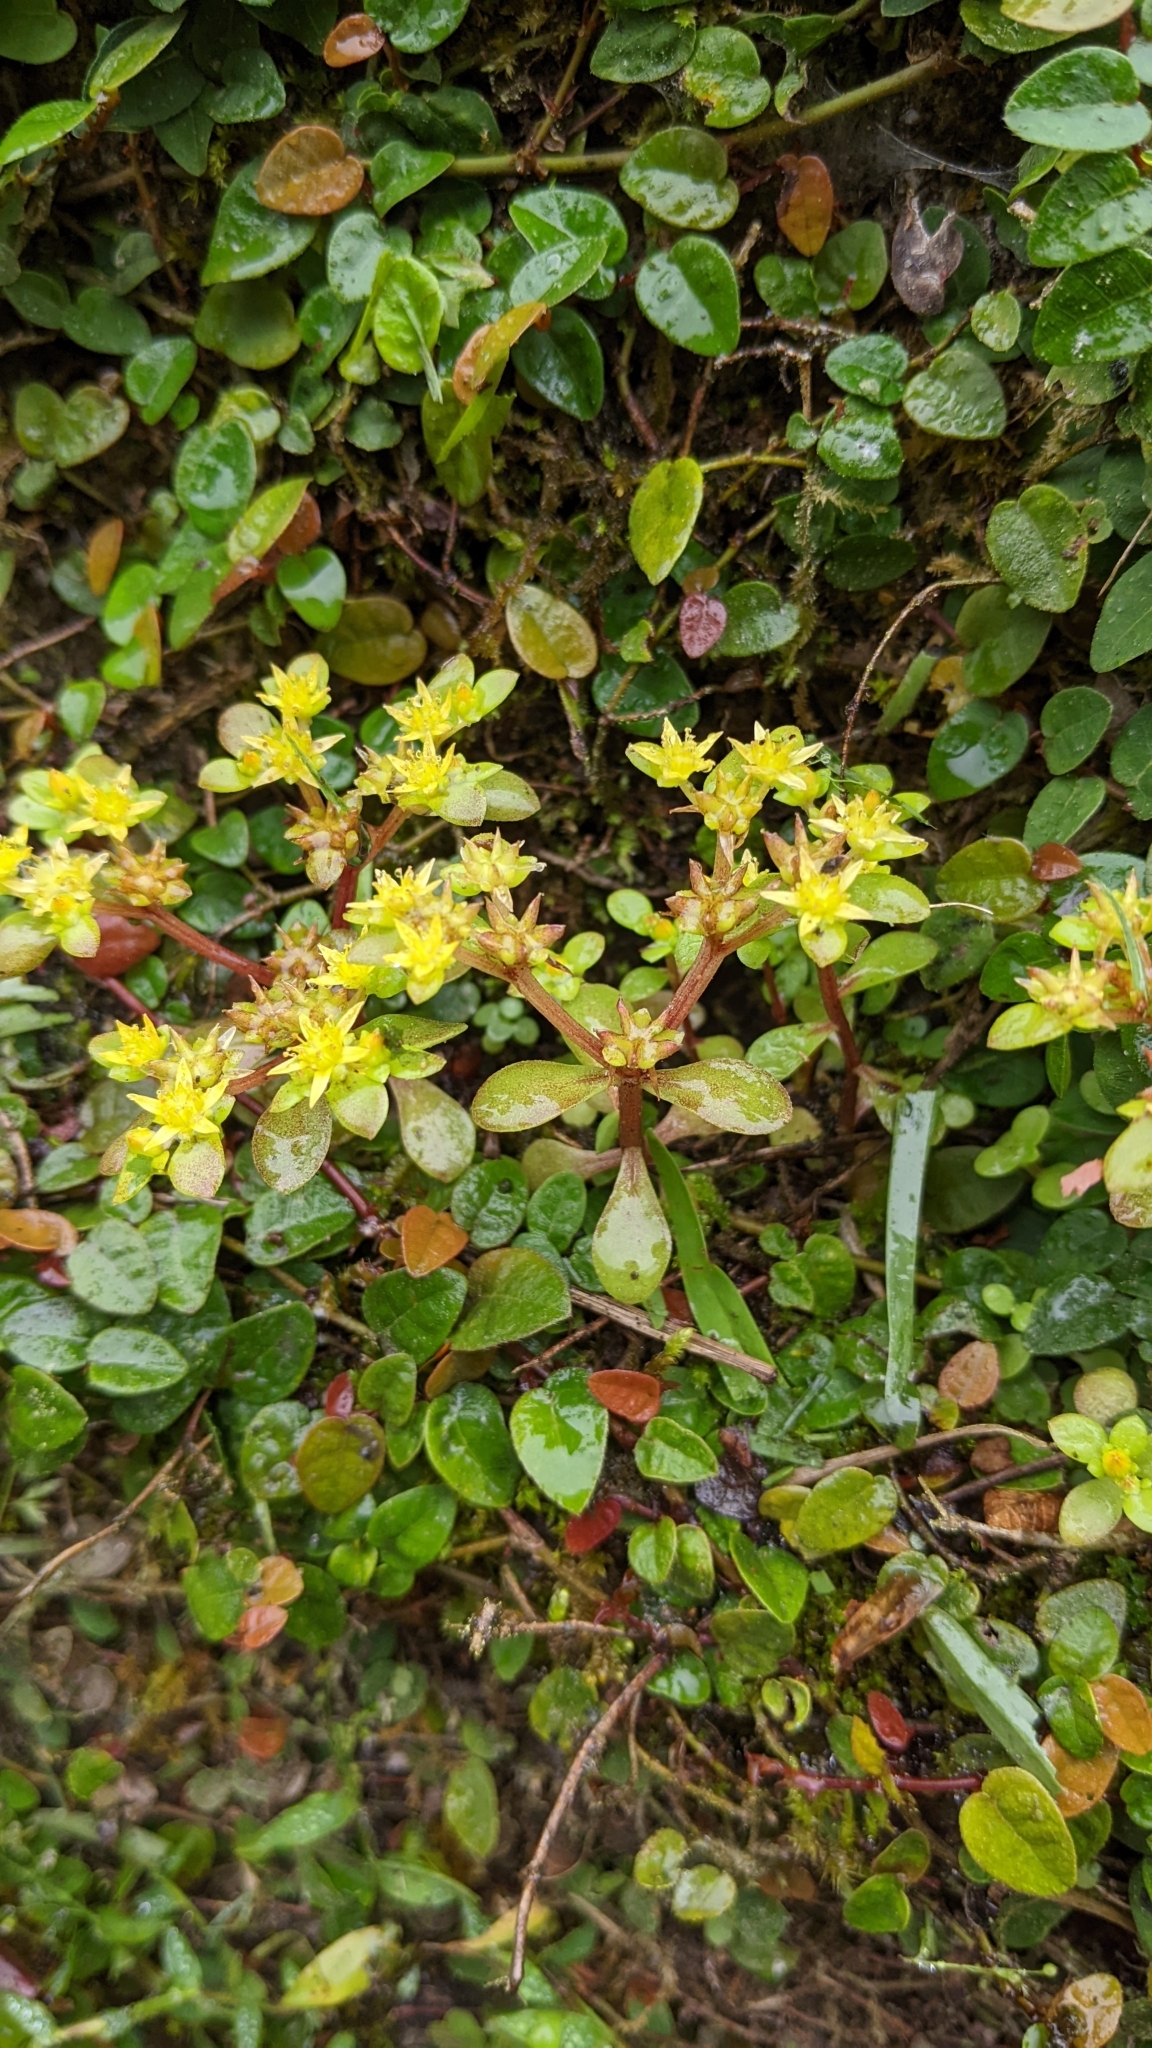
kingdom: Plantae
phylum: Tracheophyta
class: Magnoliopsida
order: Saxifragales
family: Crassulaceae
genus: Sedum
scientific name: Sedum actinocarpum
